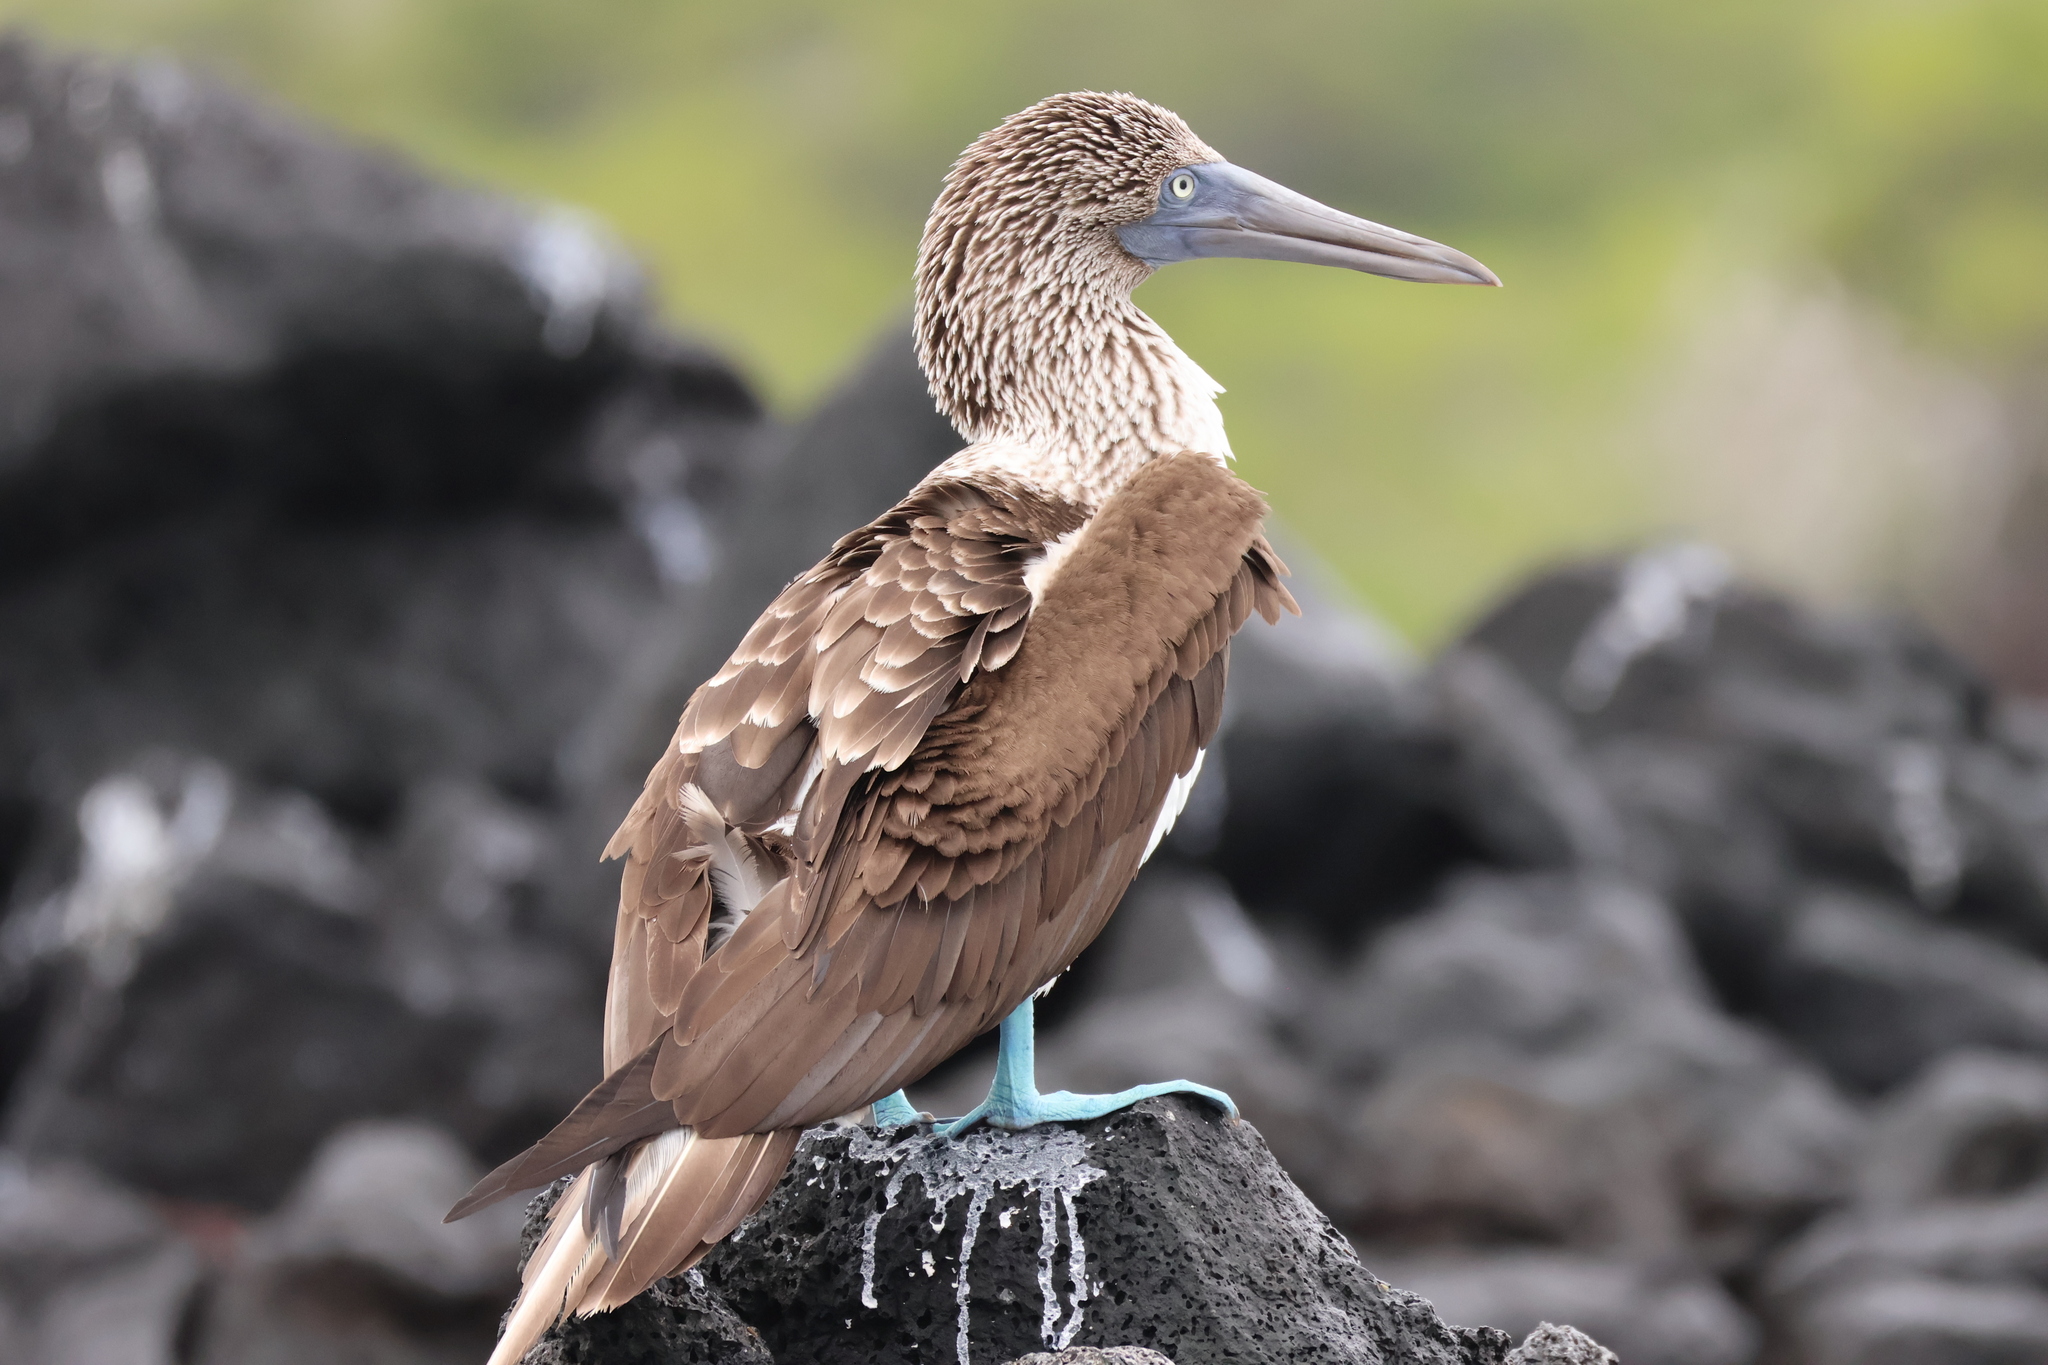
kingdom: Animalia
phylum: Chordata
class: Aves
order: Suliformes
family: Sulidae
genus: Sula
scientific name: Sula nebouxii
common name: Blue-footed booby
